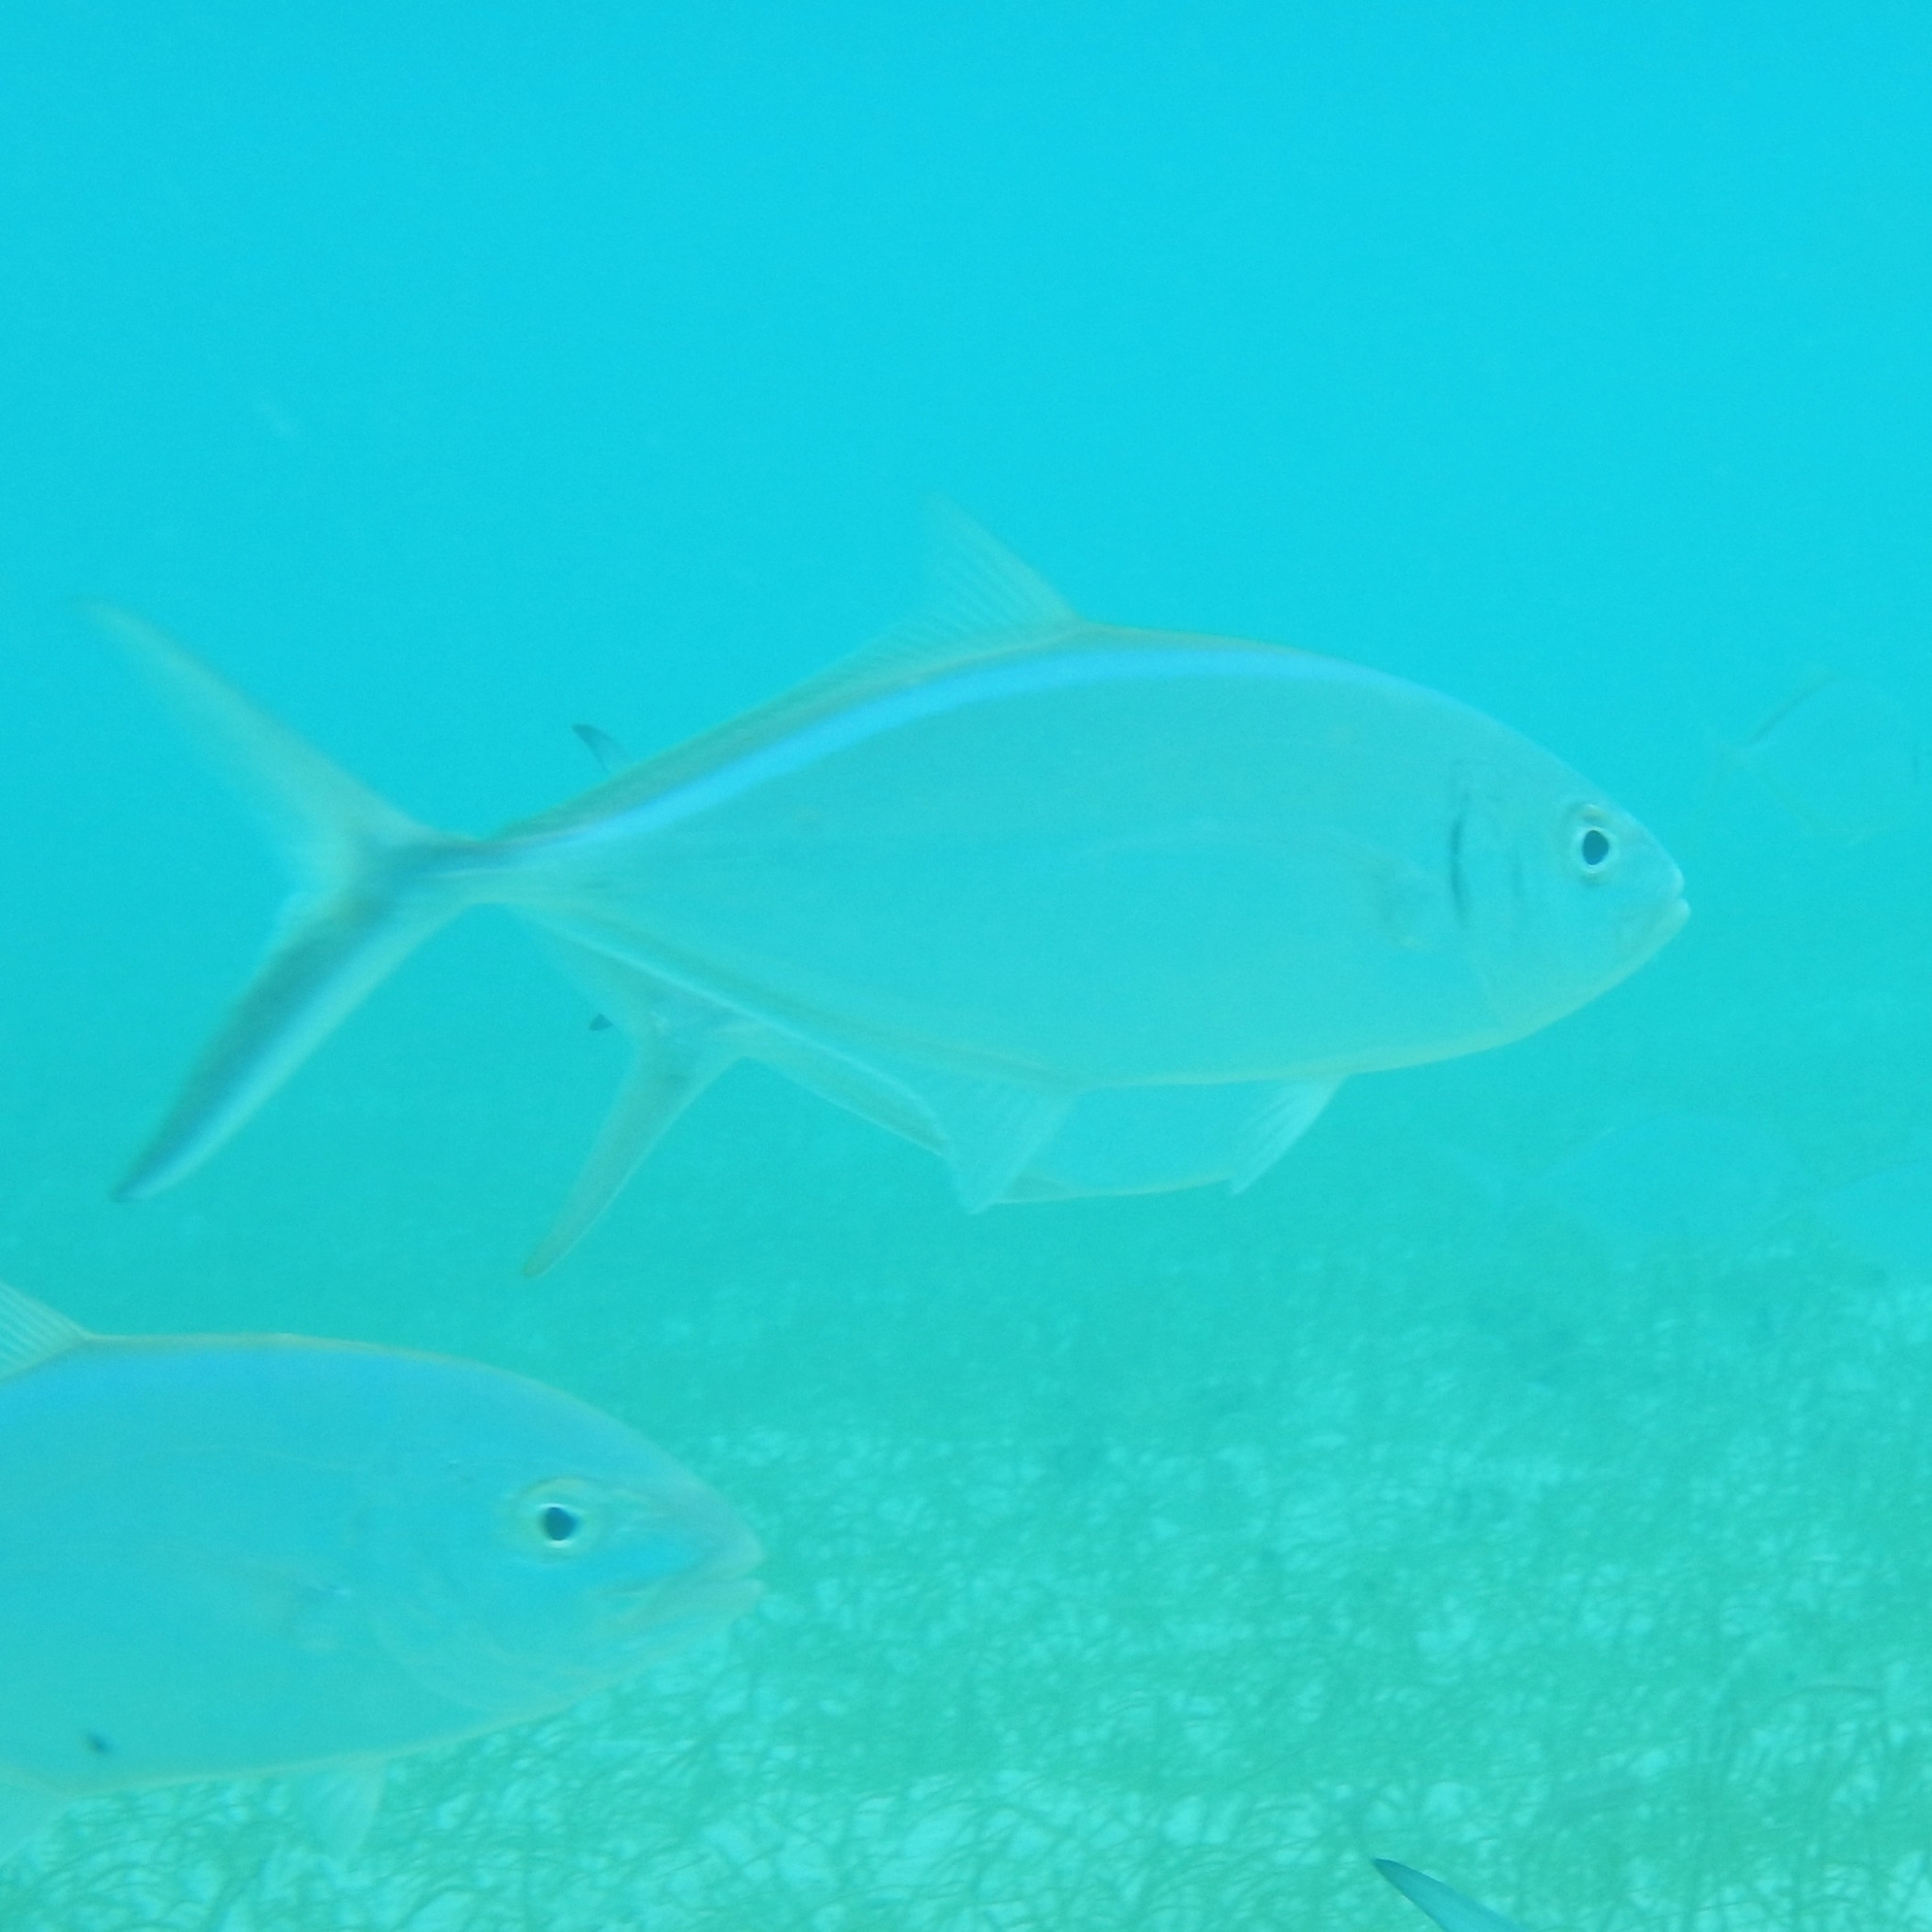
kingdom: Animalia
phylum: Chordata
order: Perciformes
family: Carangidae
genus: Caranx
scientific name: Caranx ruber
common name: Bar jack
